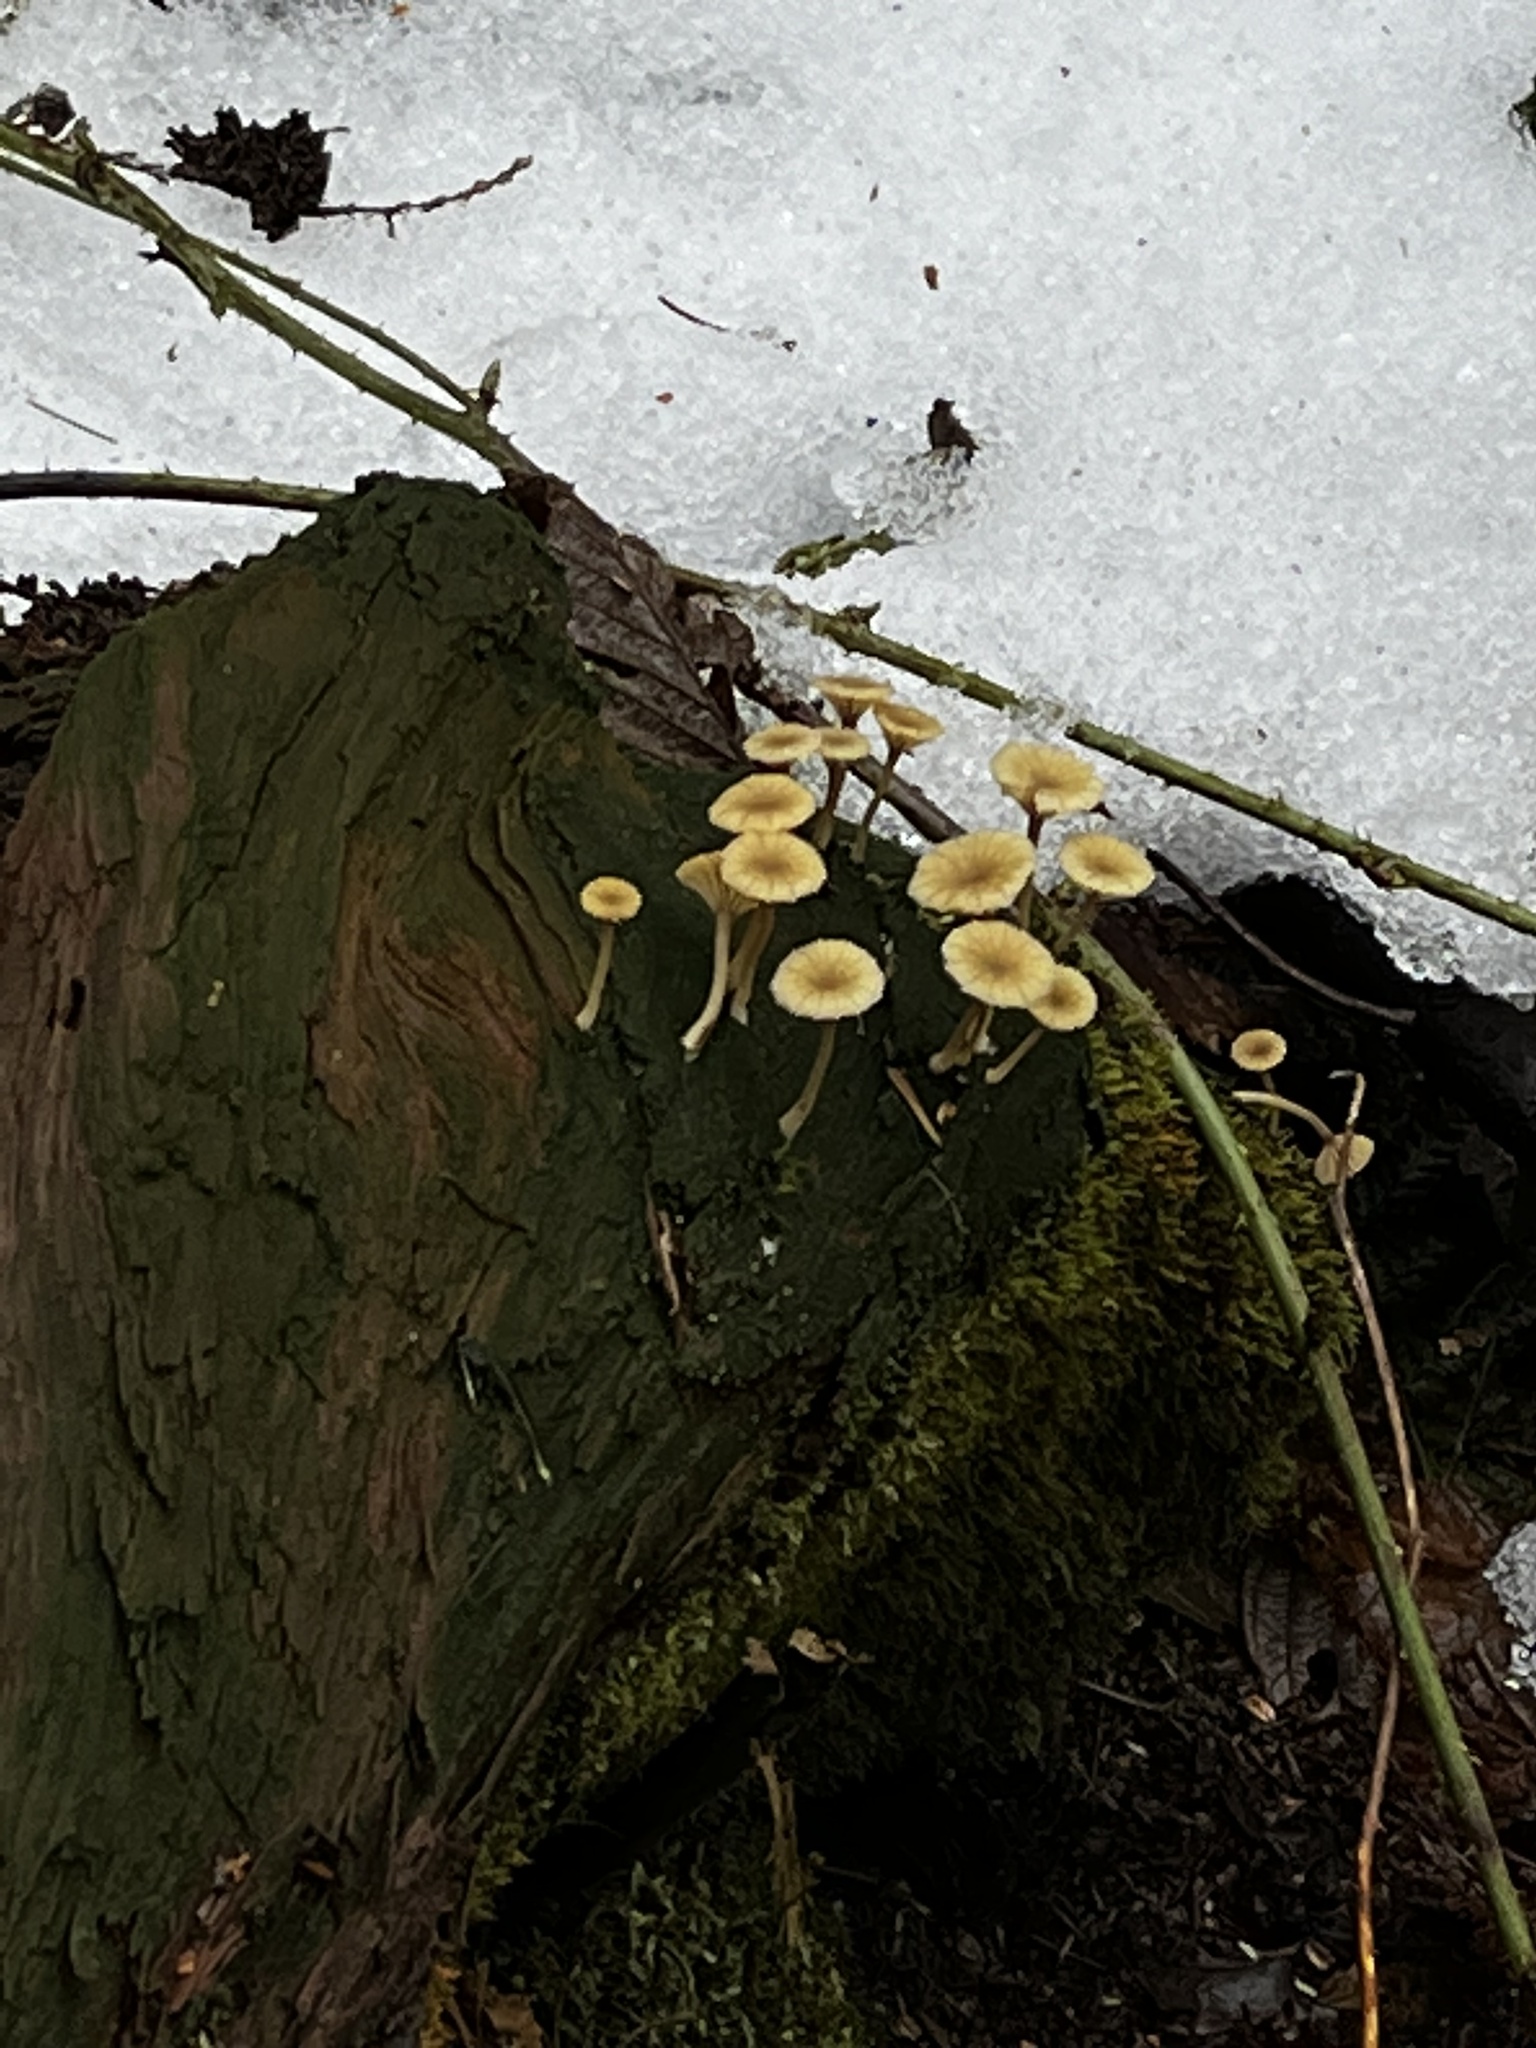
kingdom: Fungi
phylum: Basidiomycota
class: Agaricomycetes
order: Agaricales
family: Hygrophoraceae
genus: Lichenomphalia
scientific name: Lichenomphalia
